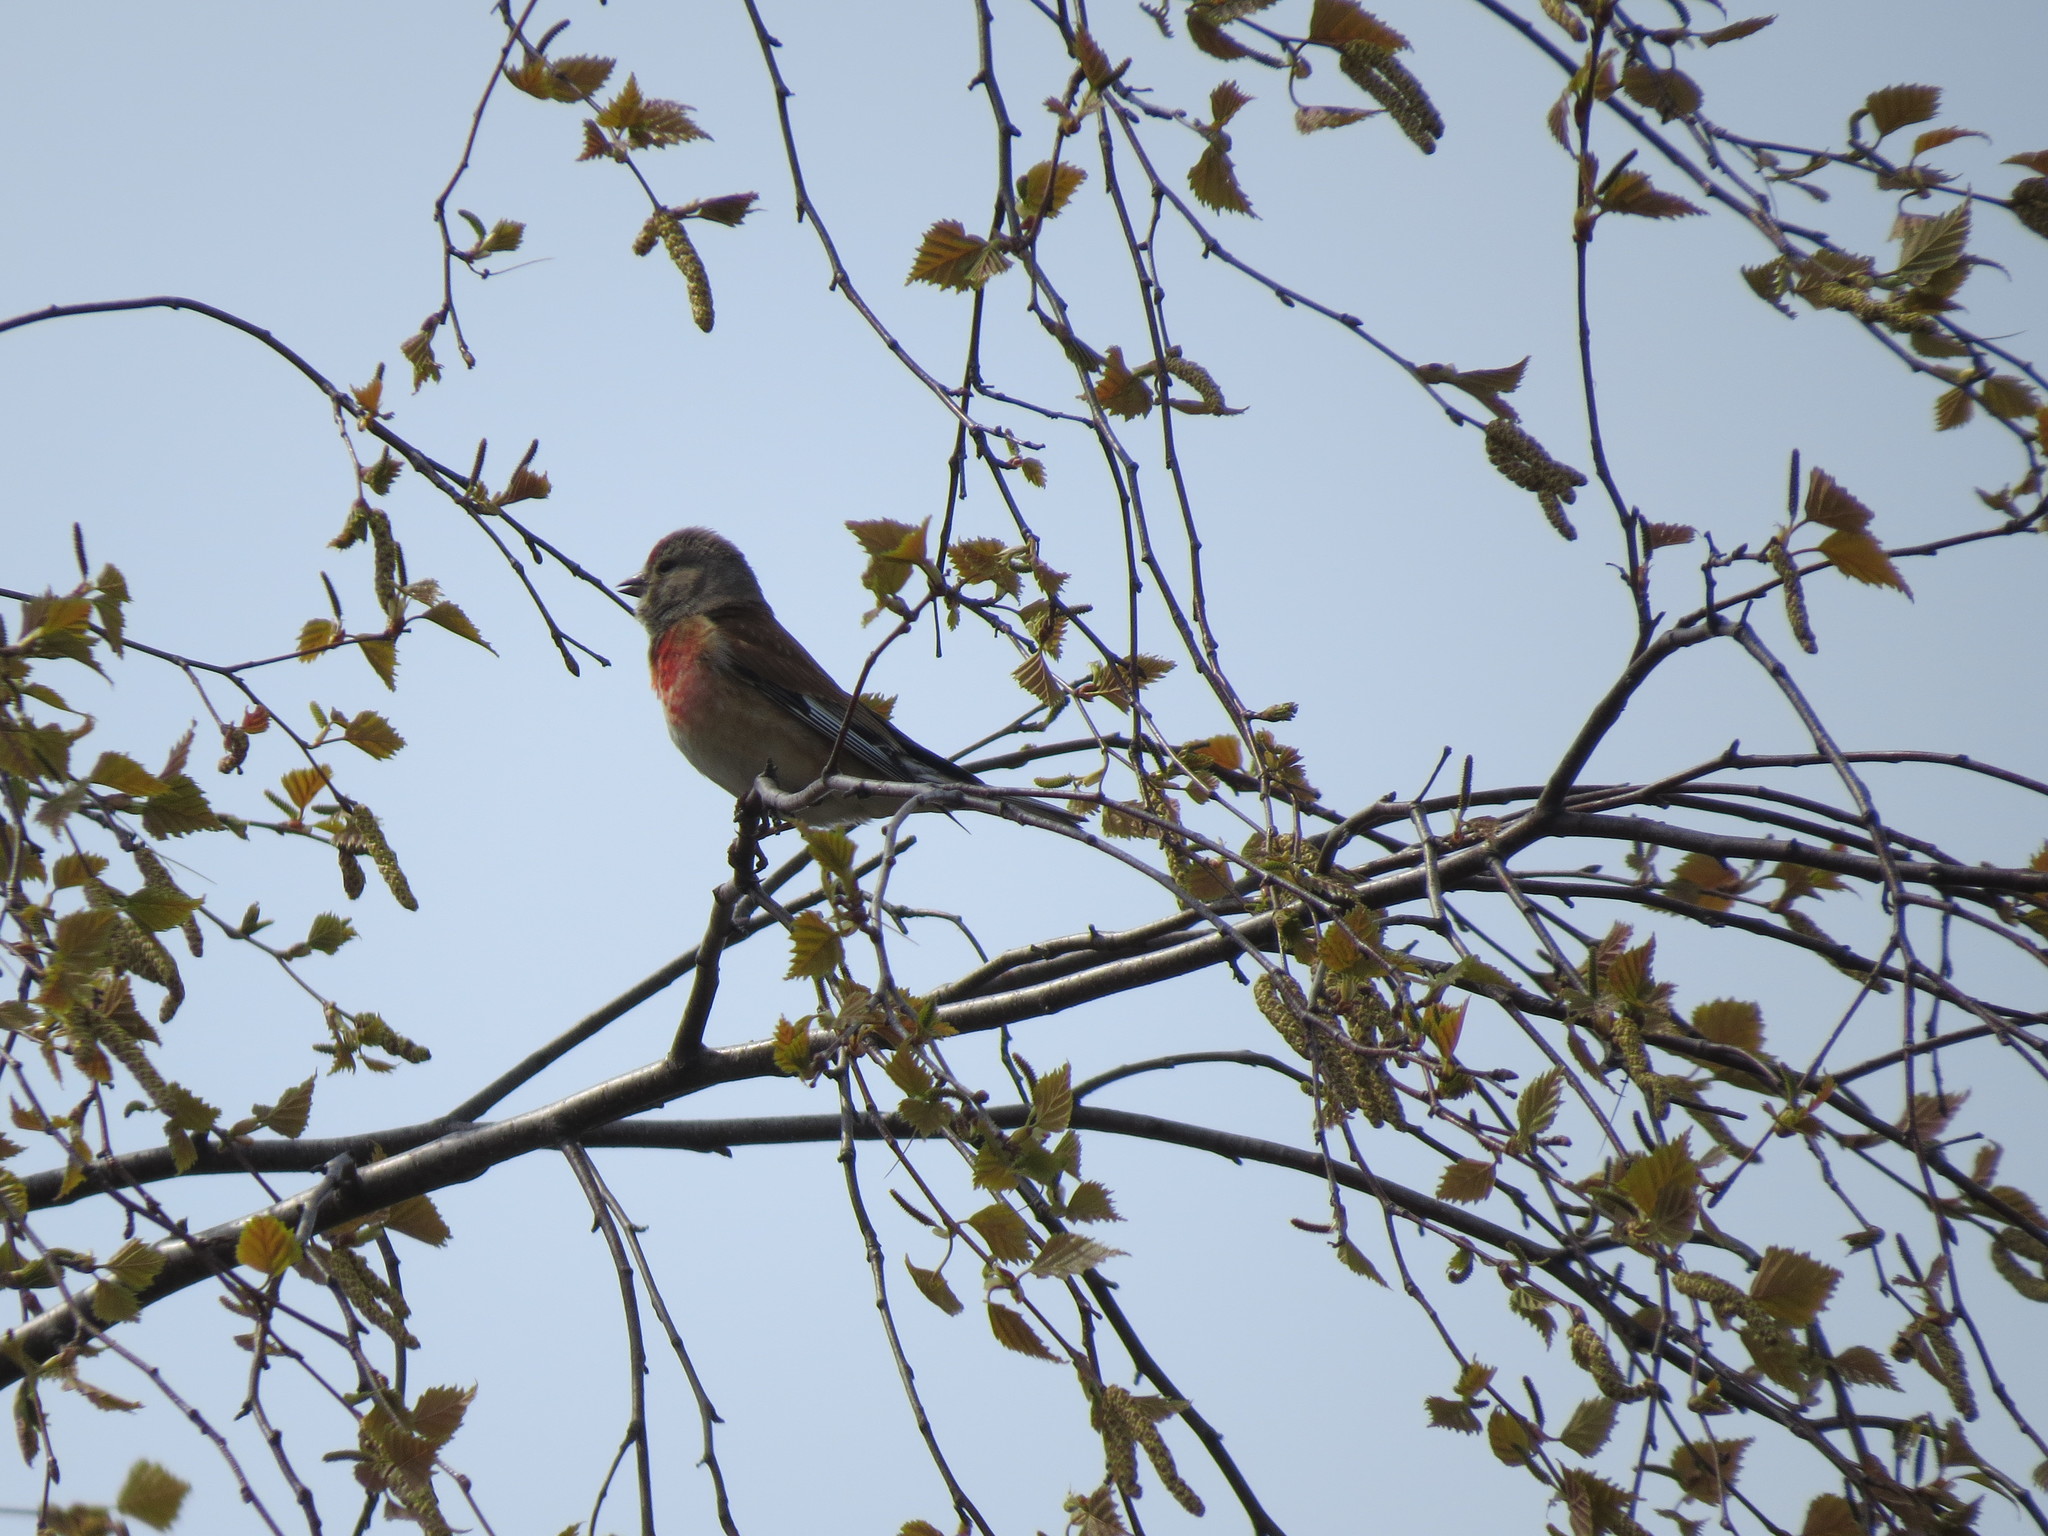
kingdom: Animalia
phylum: Chordata
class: Aves
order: Passeriformes
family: Fringillidae
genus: Linaria
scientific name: Linaria cannabina
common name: Common linnet
